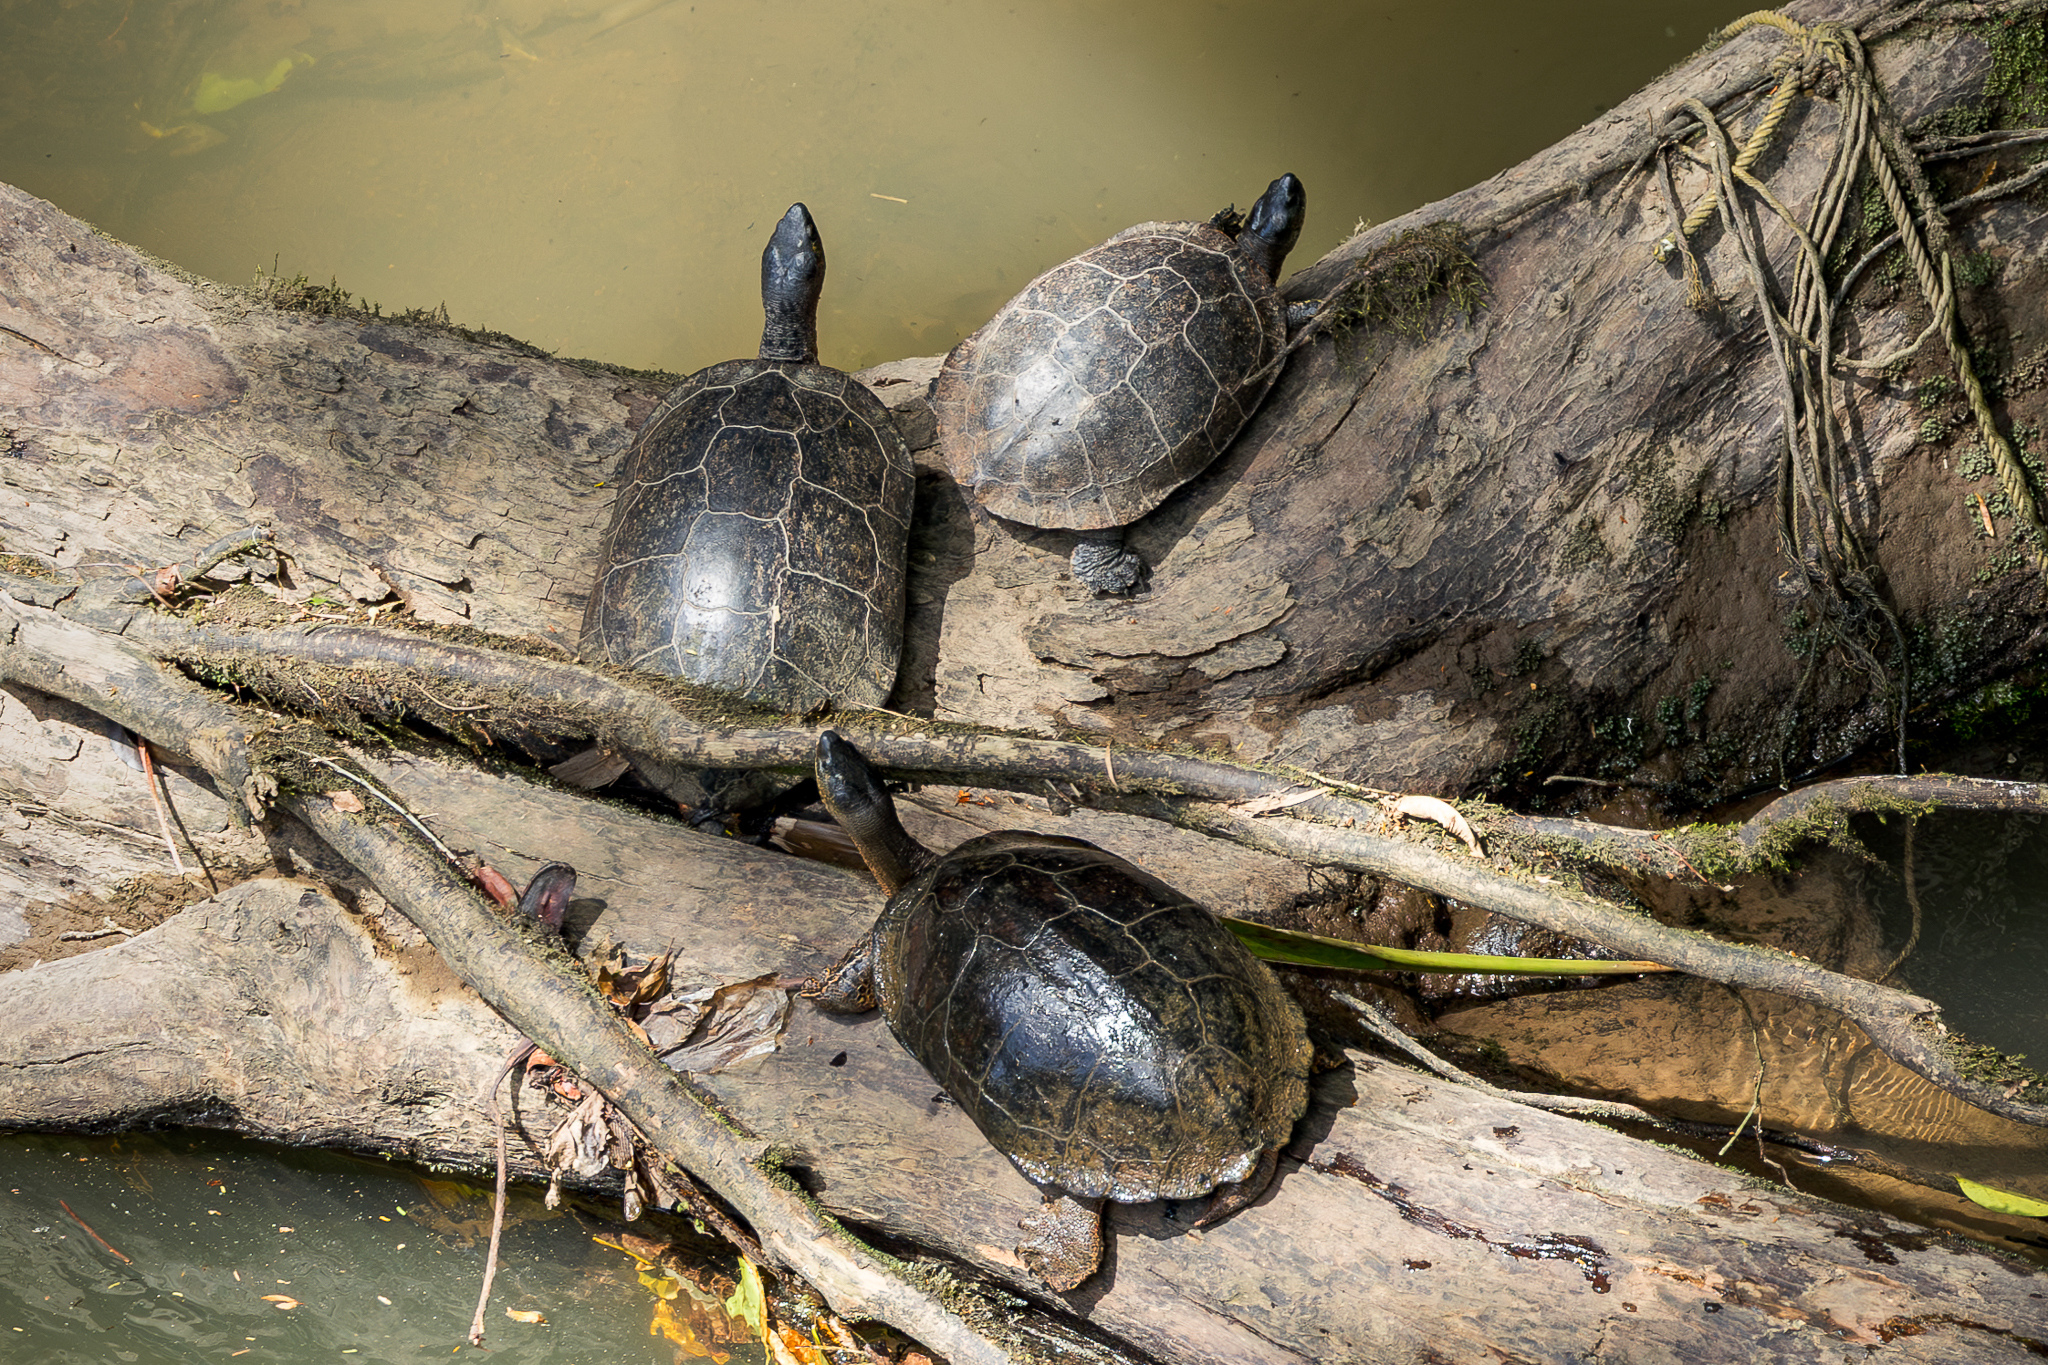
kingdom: Animalia
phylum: Chordata
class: Testudines
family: Geoemydidae
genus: Rhinoclemmys
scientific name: Rhinoclemmys funerea
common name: Black wood turtle
